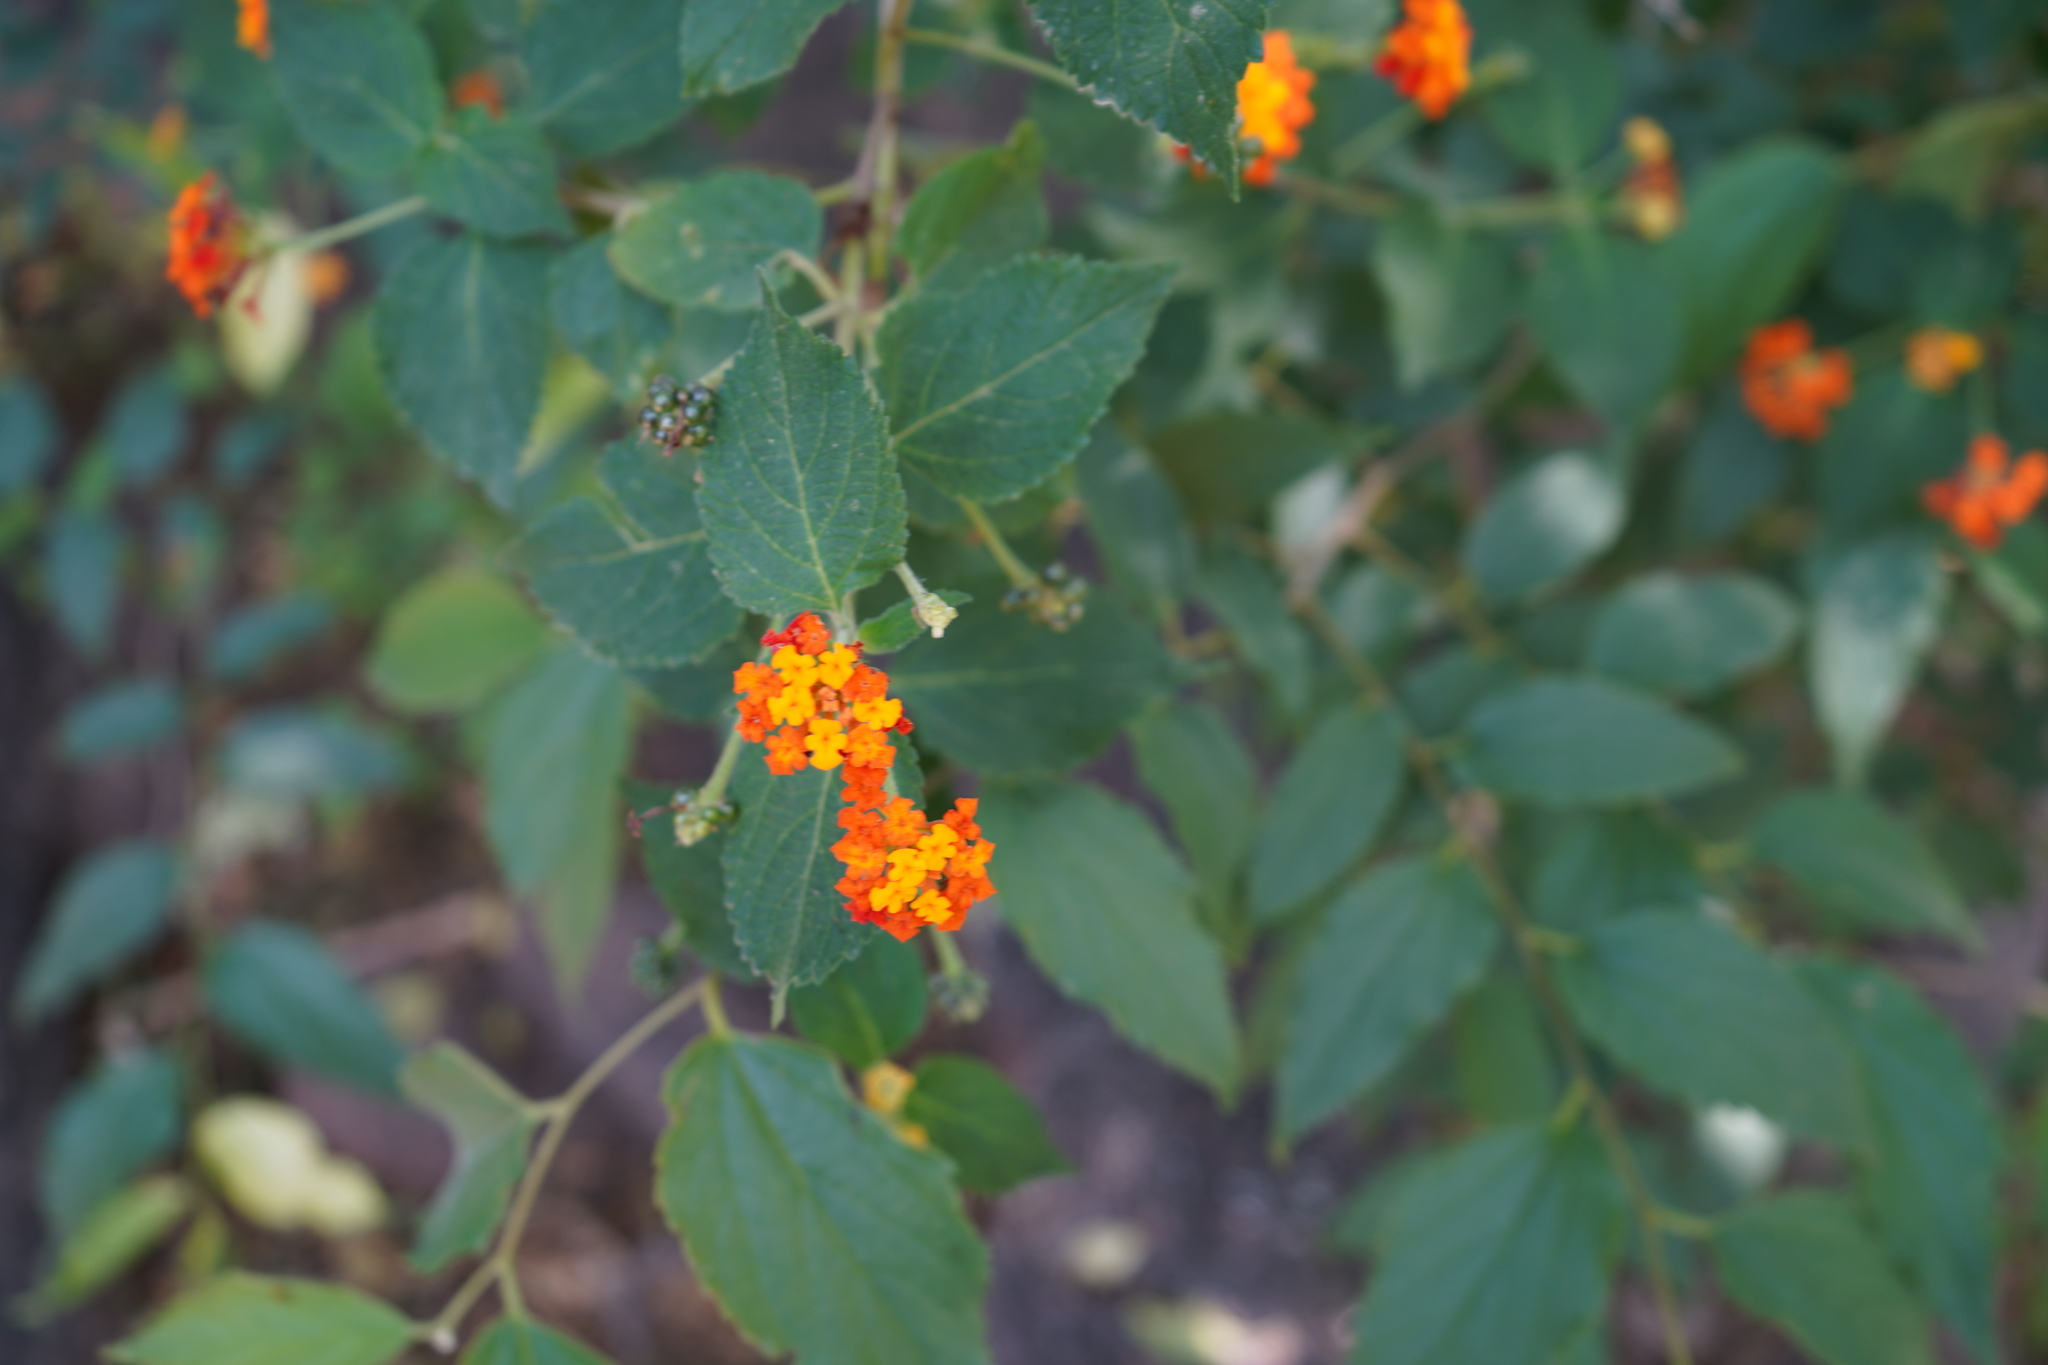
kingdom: Plantae
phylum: Tracheophyta
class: Magnoliopsida
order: Lamiales
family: Verbenaceae
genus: Lantana
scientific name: Lantana camara
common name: Lantana
